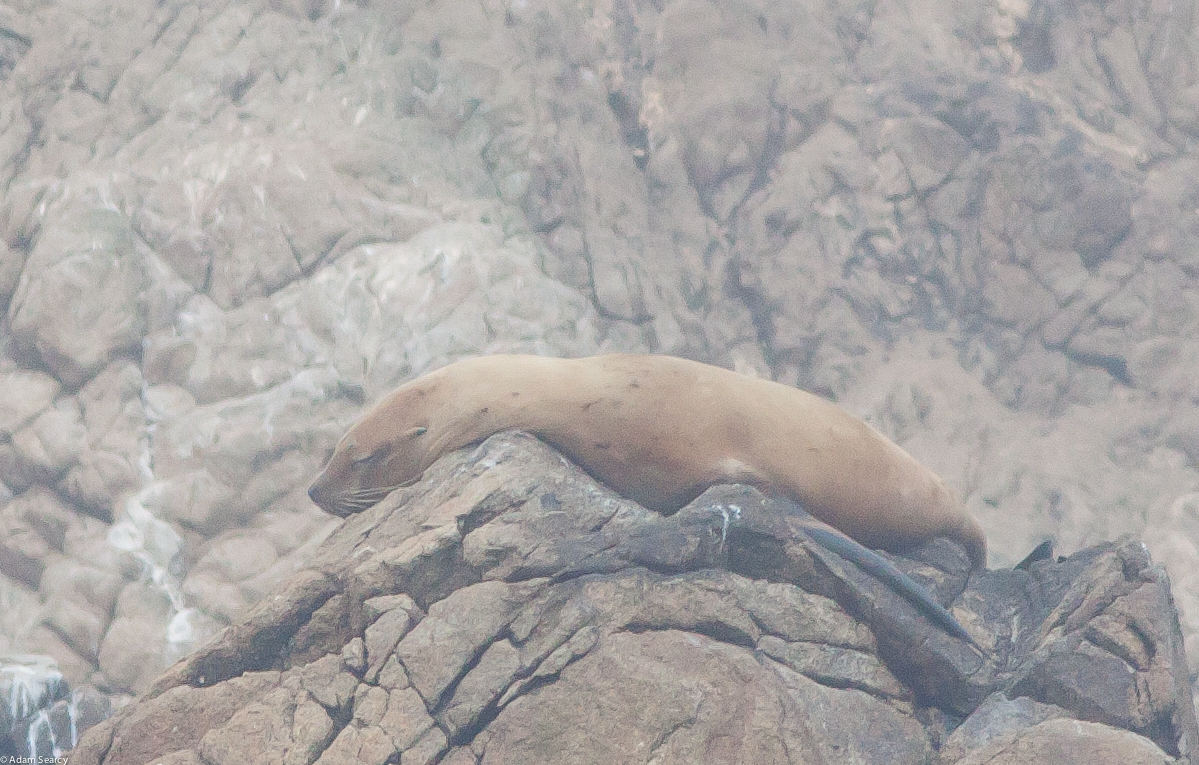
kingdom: Animalia
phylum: Chordata
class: Mammalia
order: Carnivora
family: Otariidae
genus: Eumetopias
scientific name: Eumetopias jubatus
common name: Steller sea lion
